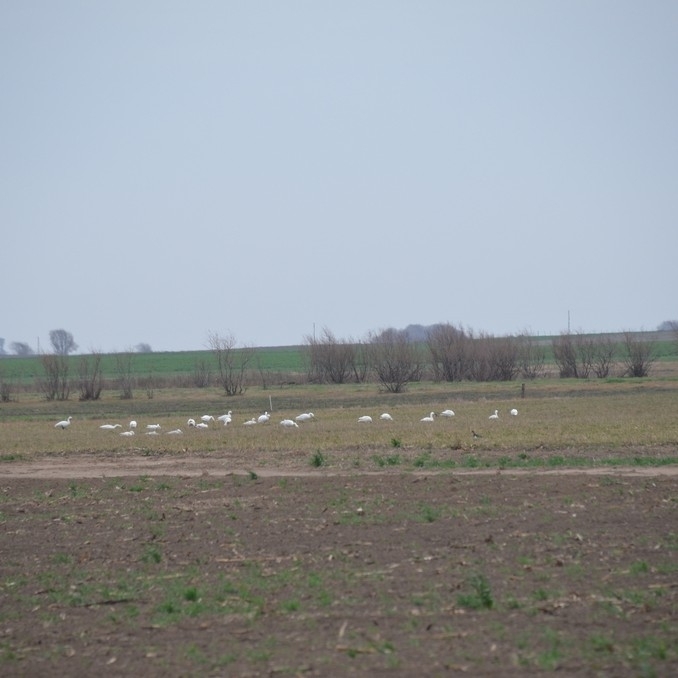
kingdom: Animalia
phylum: Chordata
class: Aves
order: Anseriformes
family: Anatidae
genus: Coscoroba
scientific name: Coscoroba coscoroba
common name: Coscoroba swan
